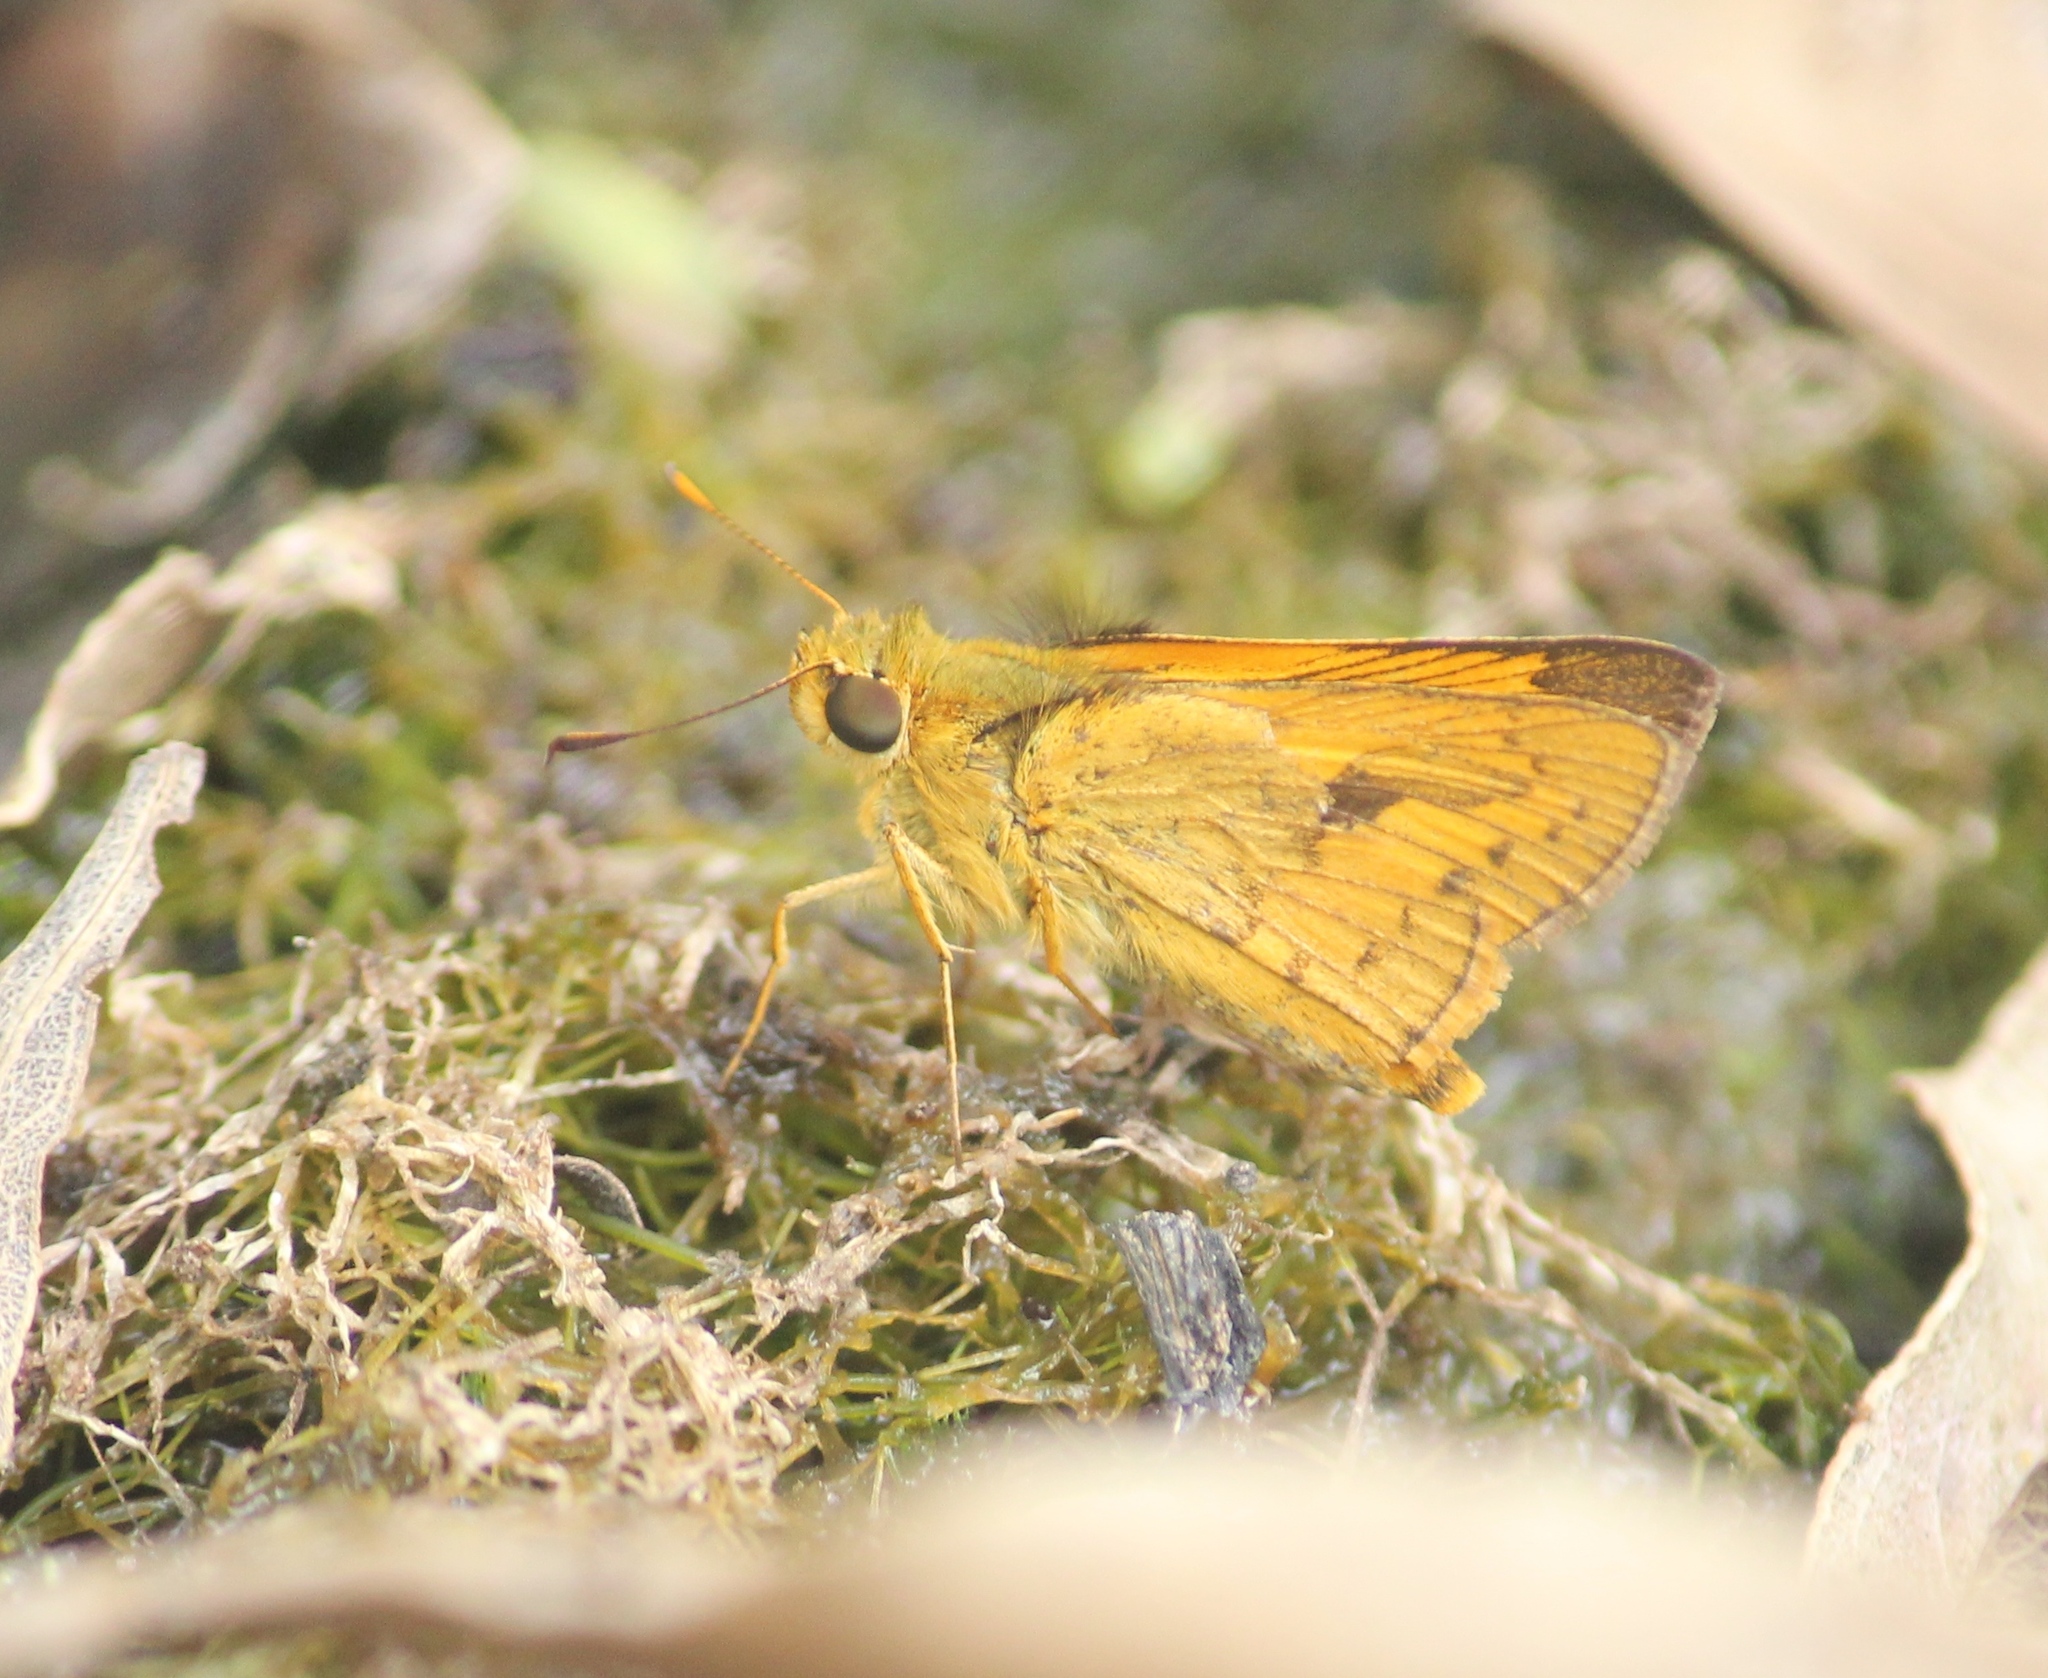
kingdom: Animalia
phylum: Arthropoda
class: Insecta
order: Lepidoptera
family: Hesperiidae
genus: Telicota
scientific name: Telicota bambusae
